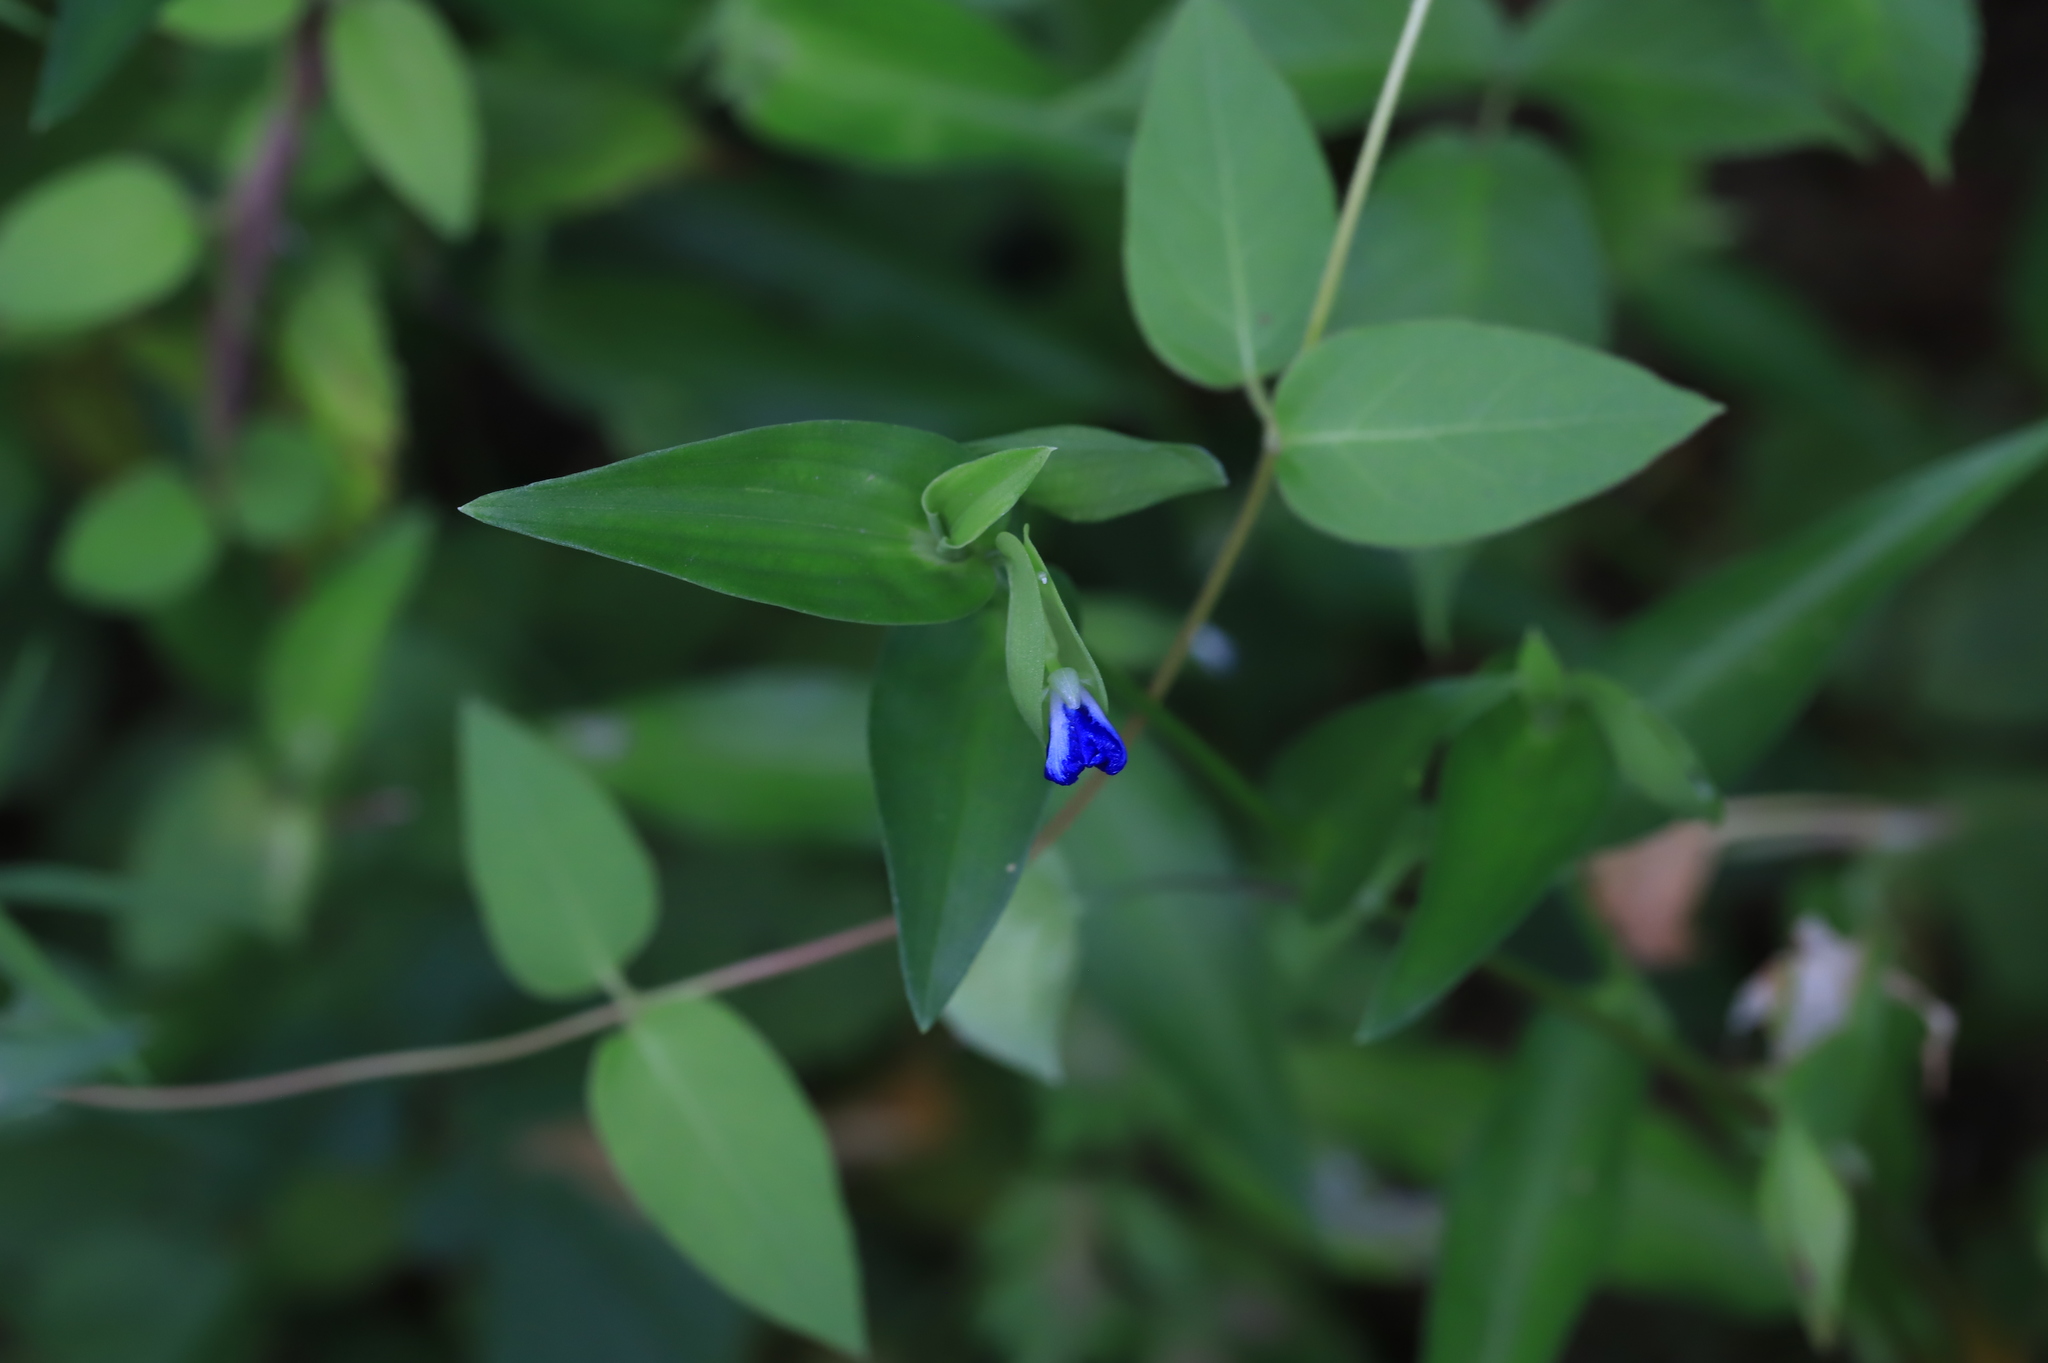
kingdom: Plantae
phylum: Tracheophyta
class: Liliopsida
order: Commelinales
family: Commelinaceae
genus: Commelina
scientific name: Commelina communis
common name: Asiatic dayflower
